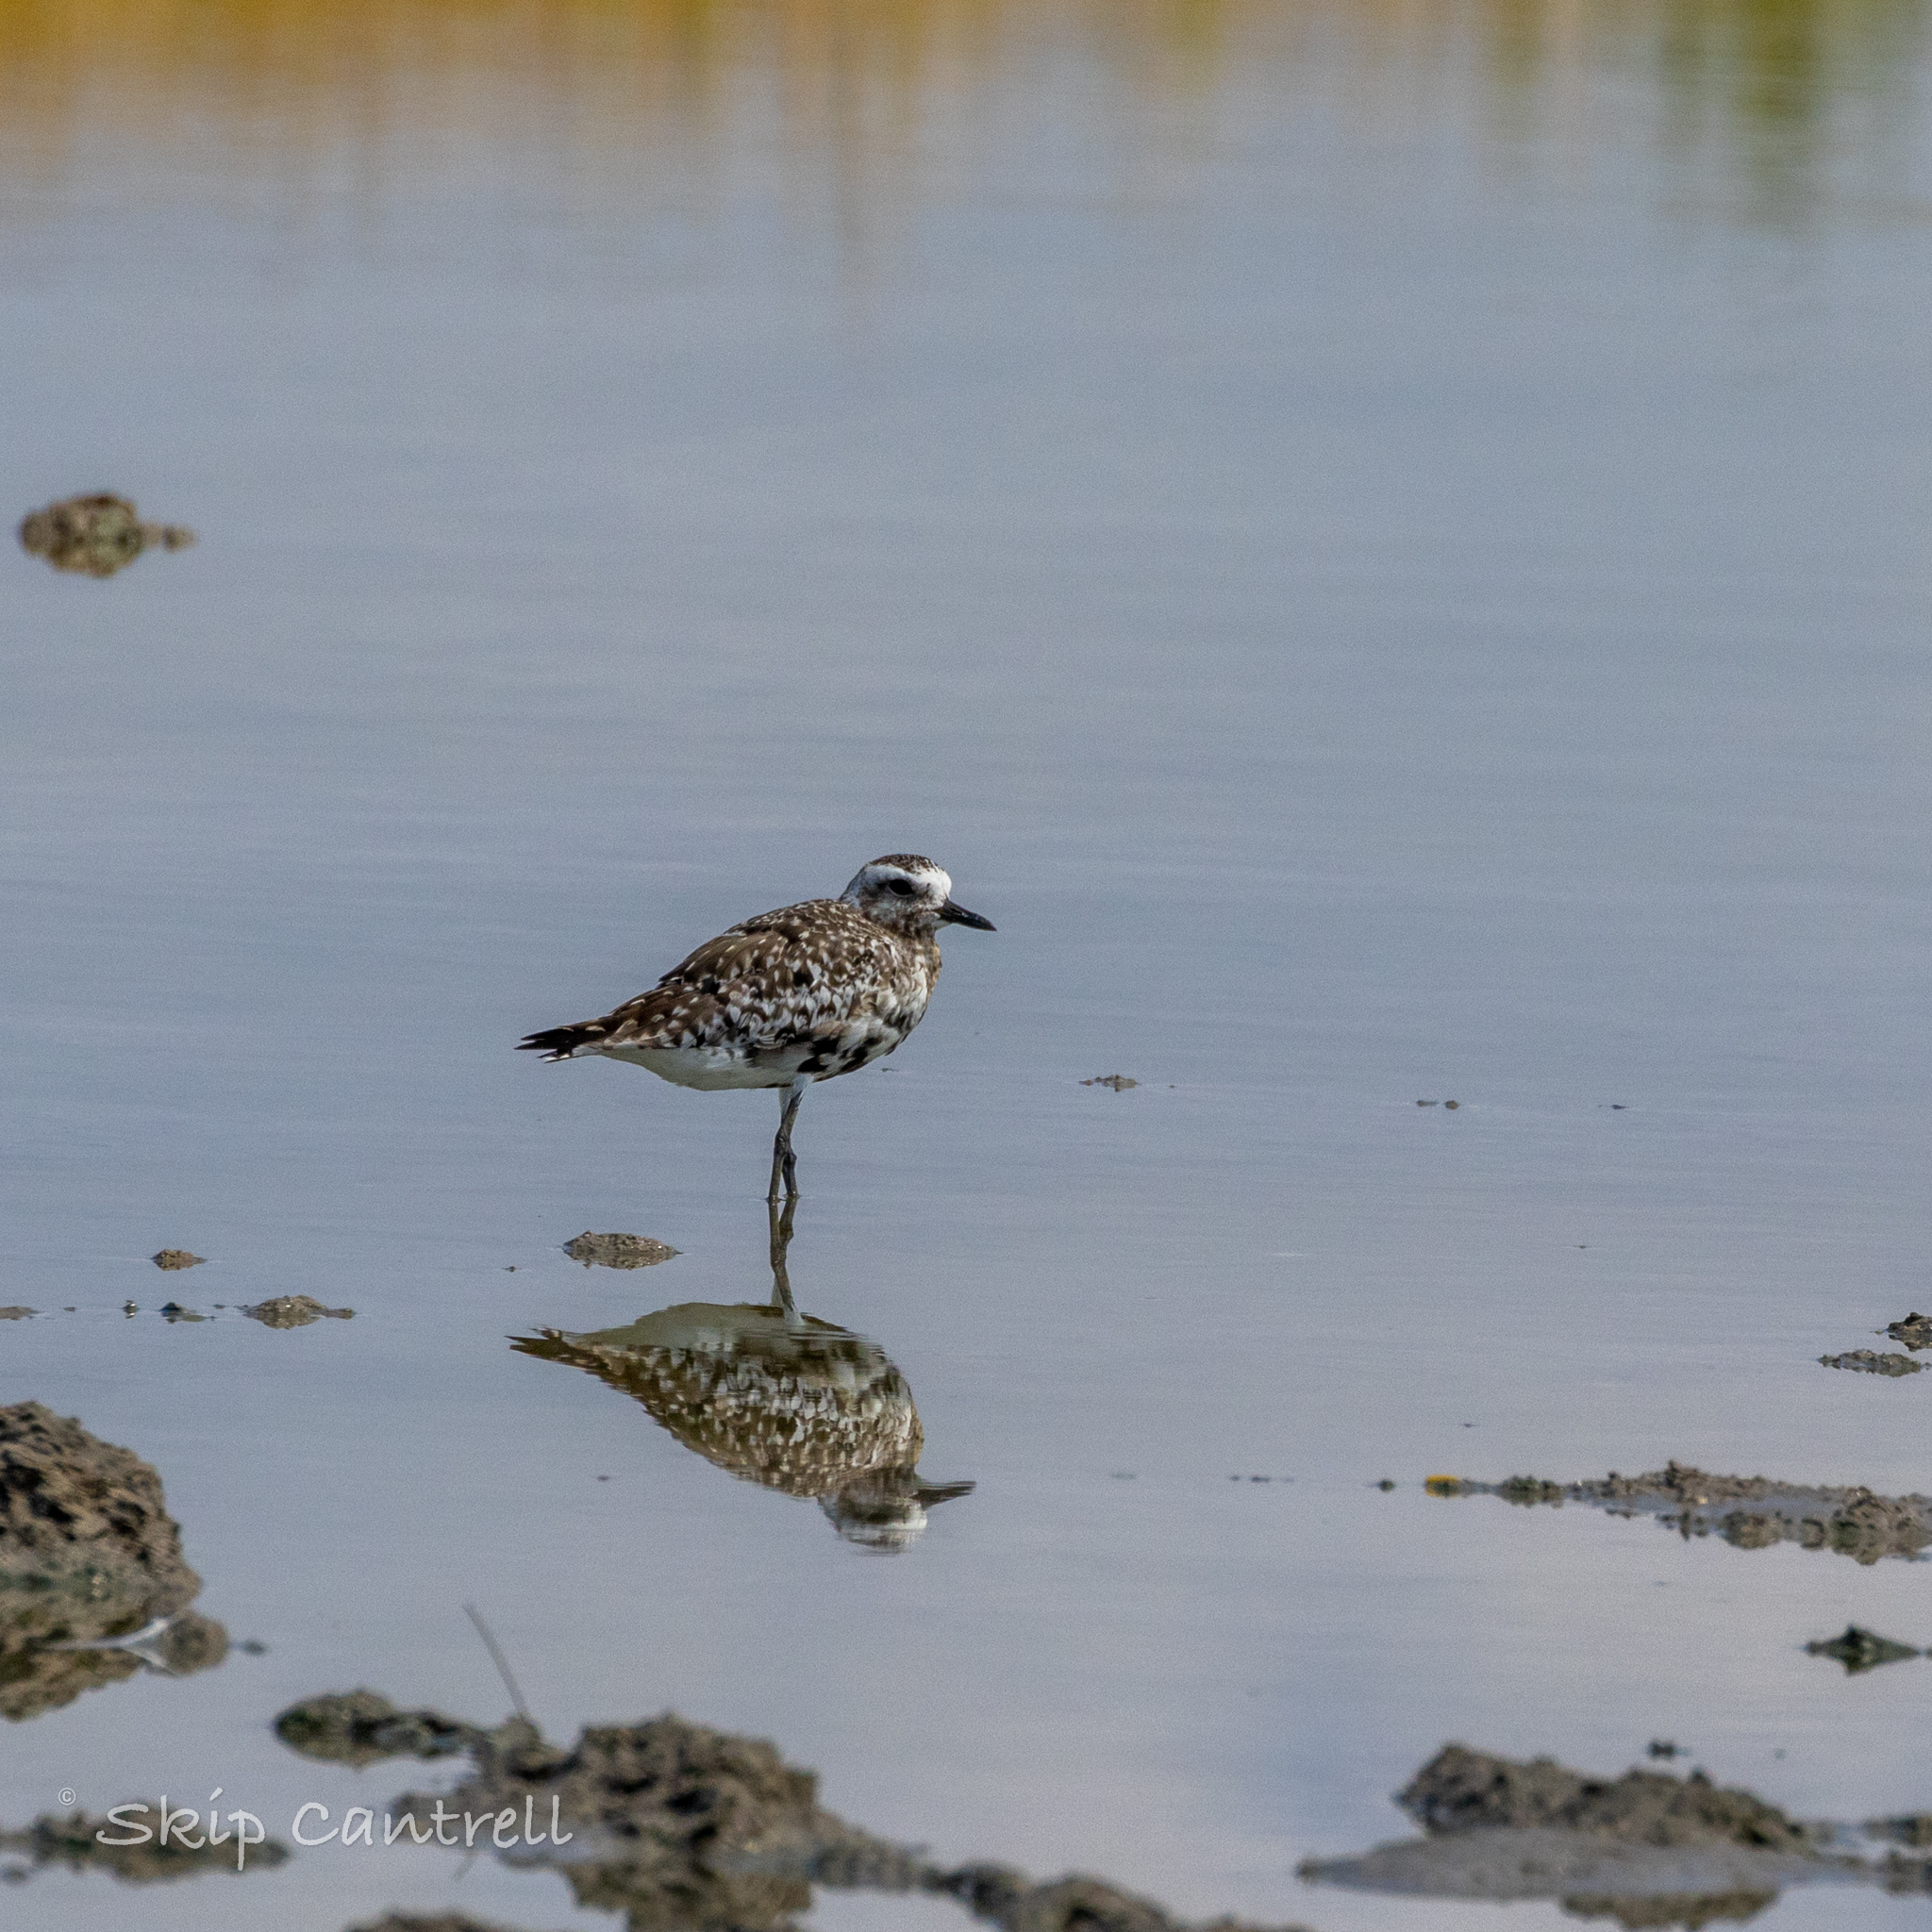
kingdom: Animalia
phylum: Chordata
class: Aves
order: Charadriiformes
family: Charadriidae
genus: Pluvialis
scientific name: Pluvialis squatarola
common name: Grey plover
